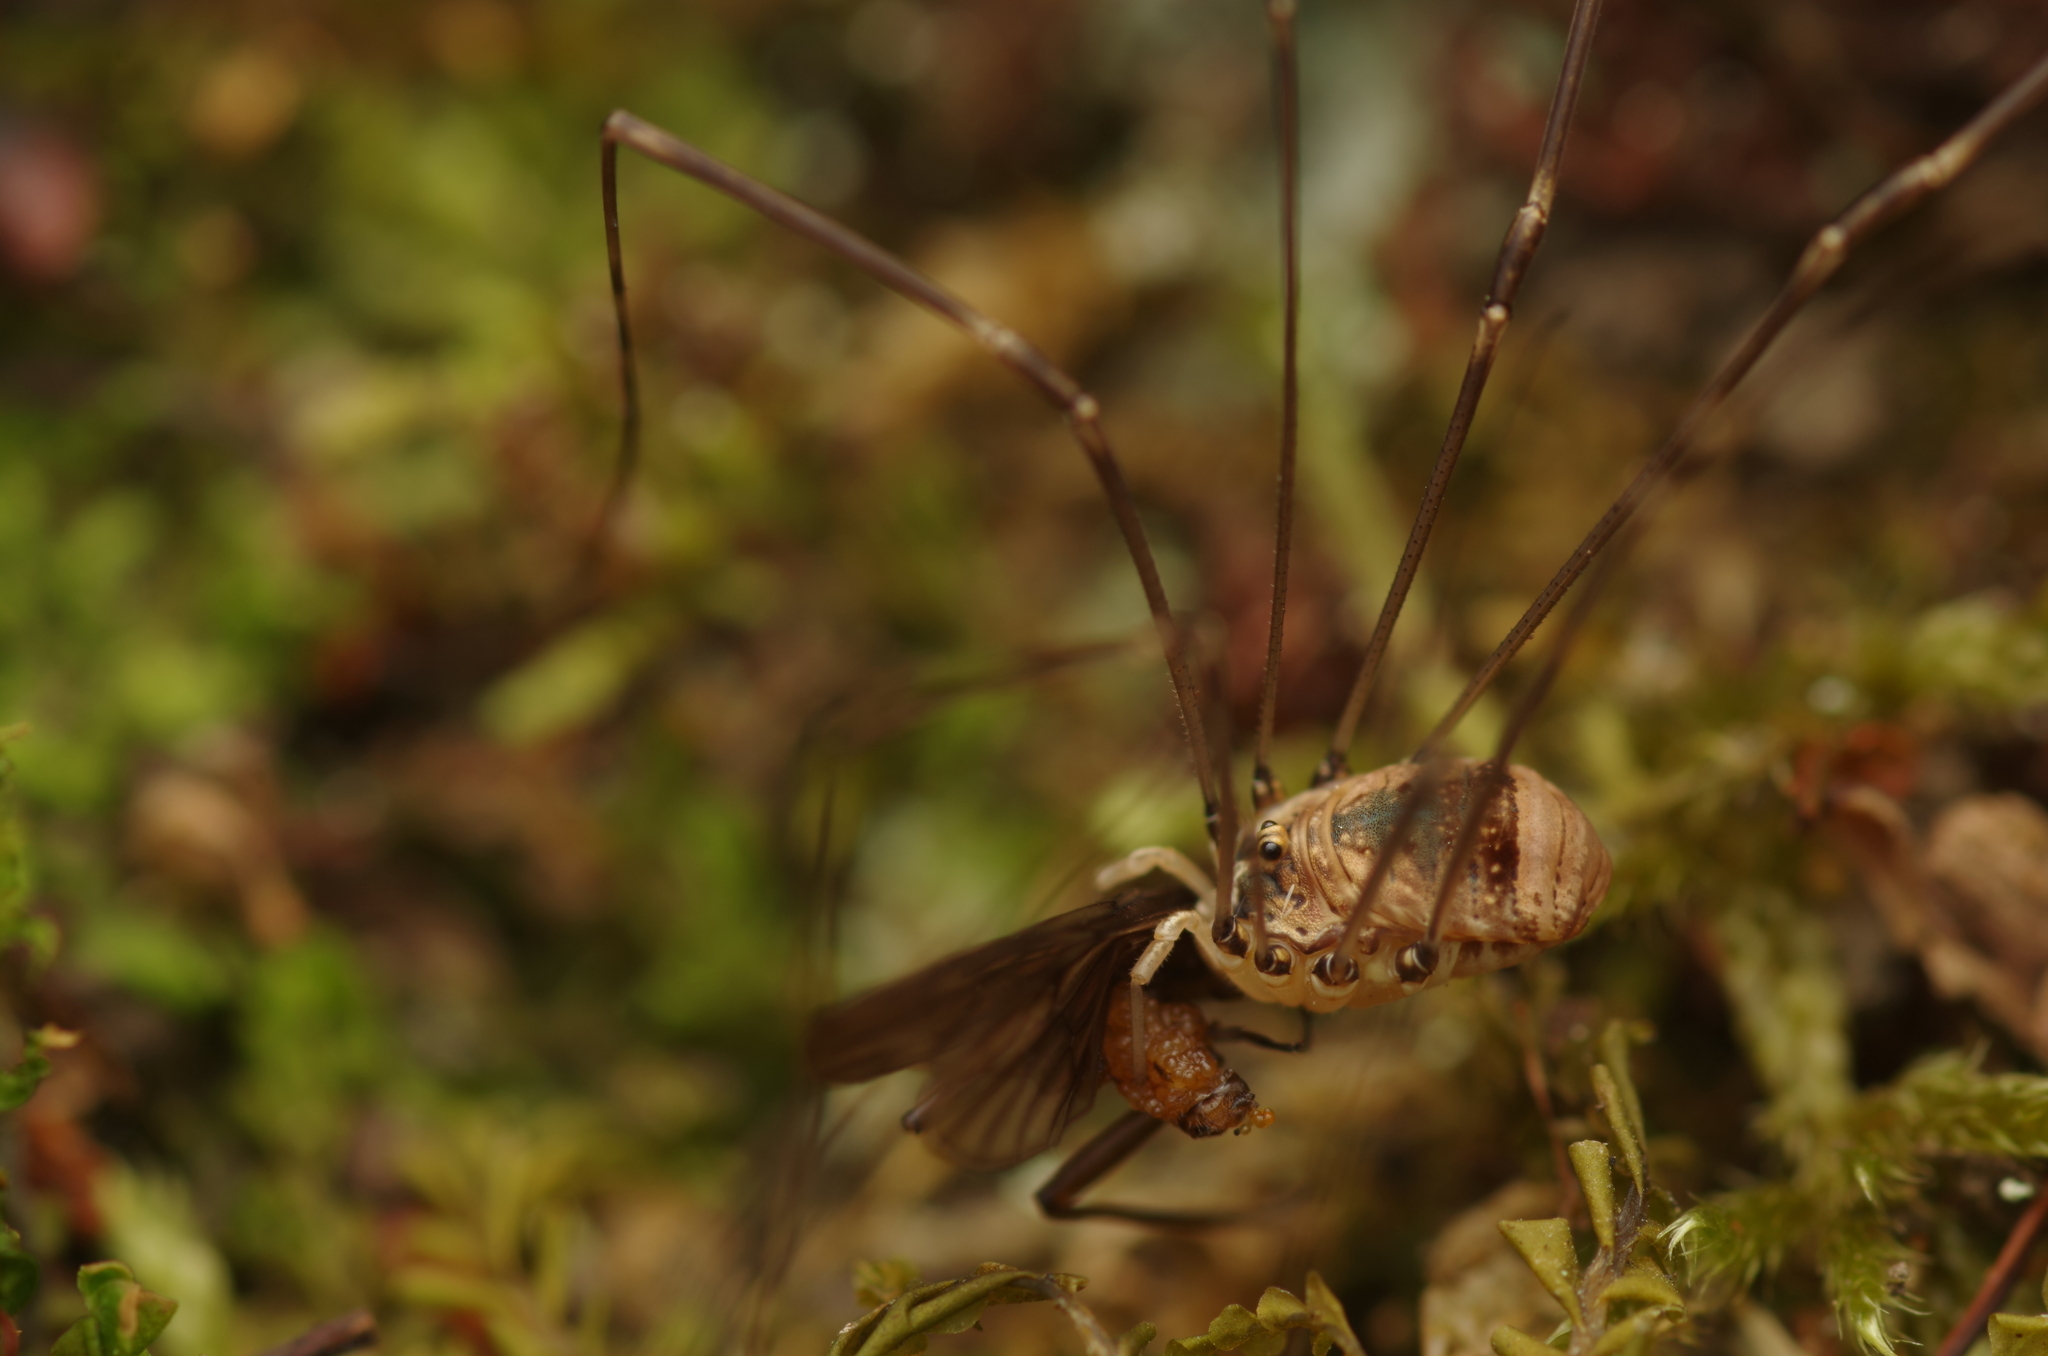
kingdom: Animalia
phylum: Arthropoda
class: Arachnida
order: Opiliones
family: Sclerosomatidae
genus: Leiobunum
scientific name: Leiobunum blackwalli
